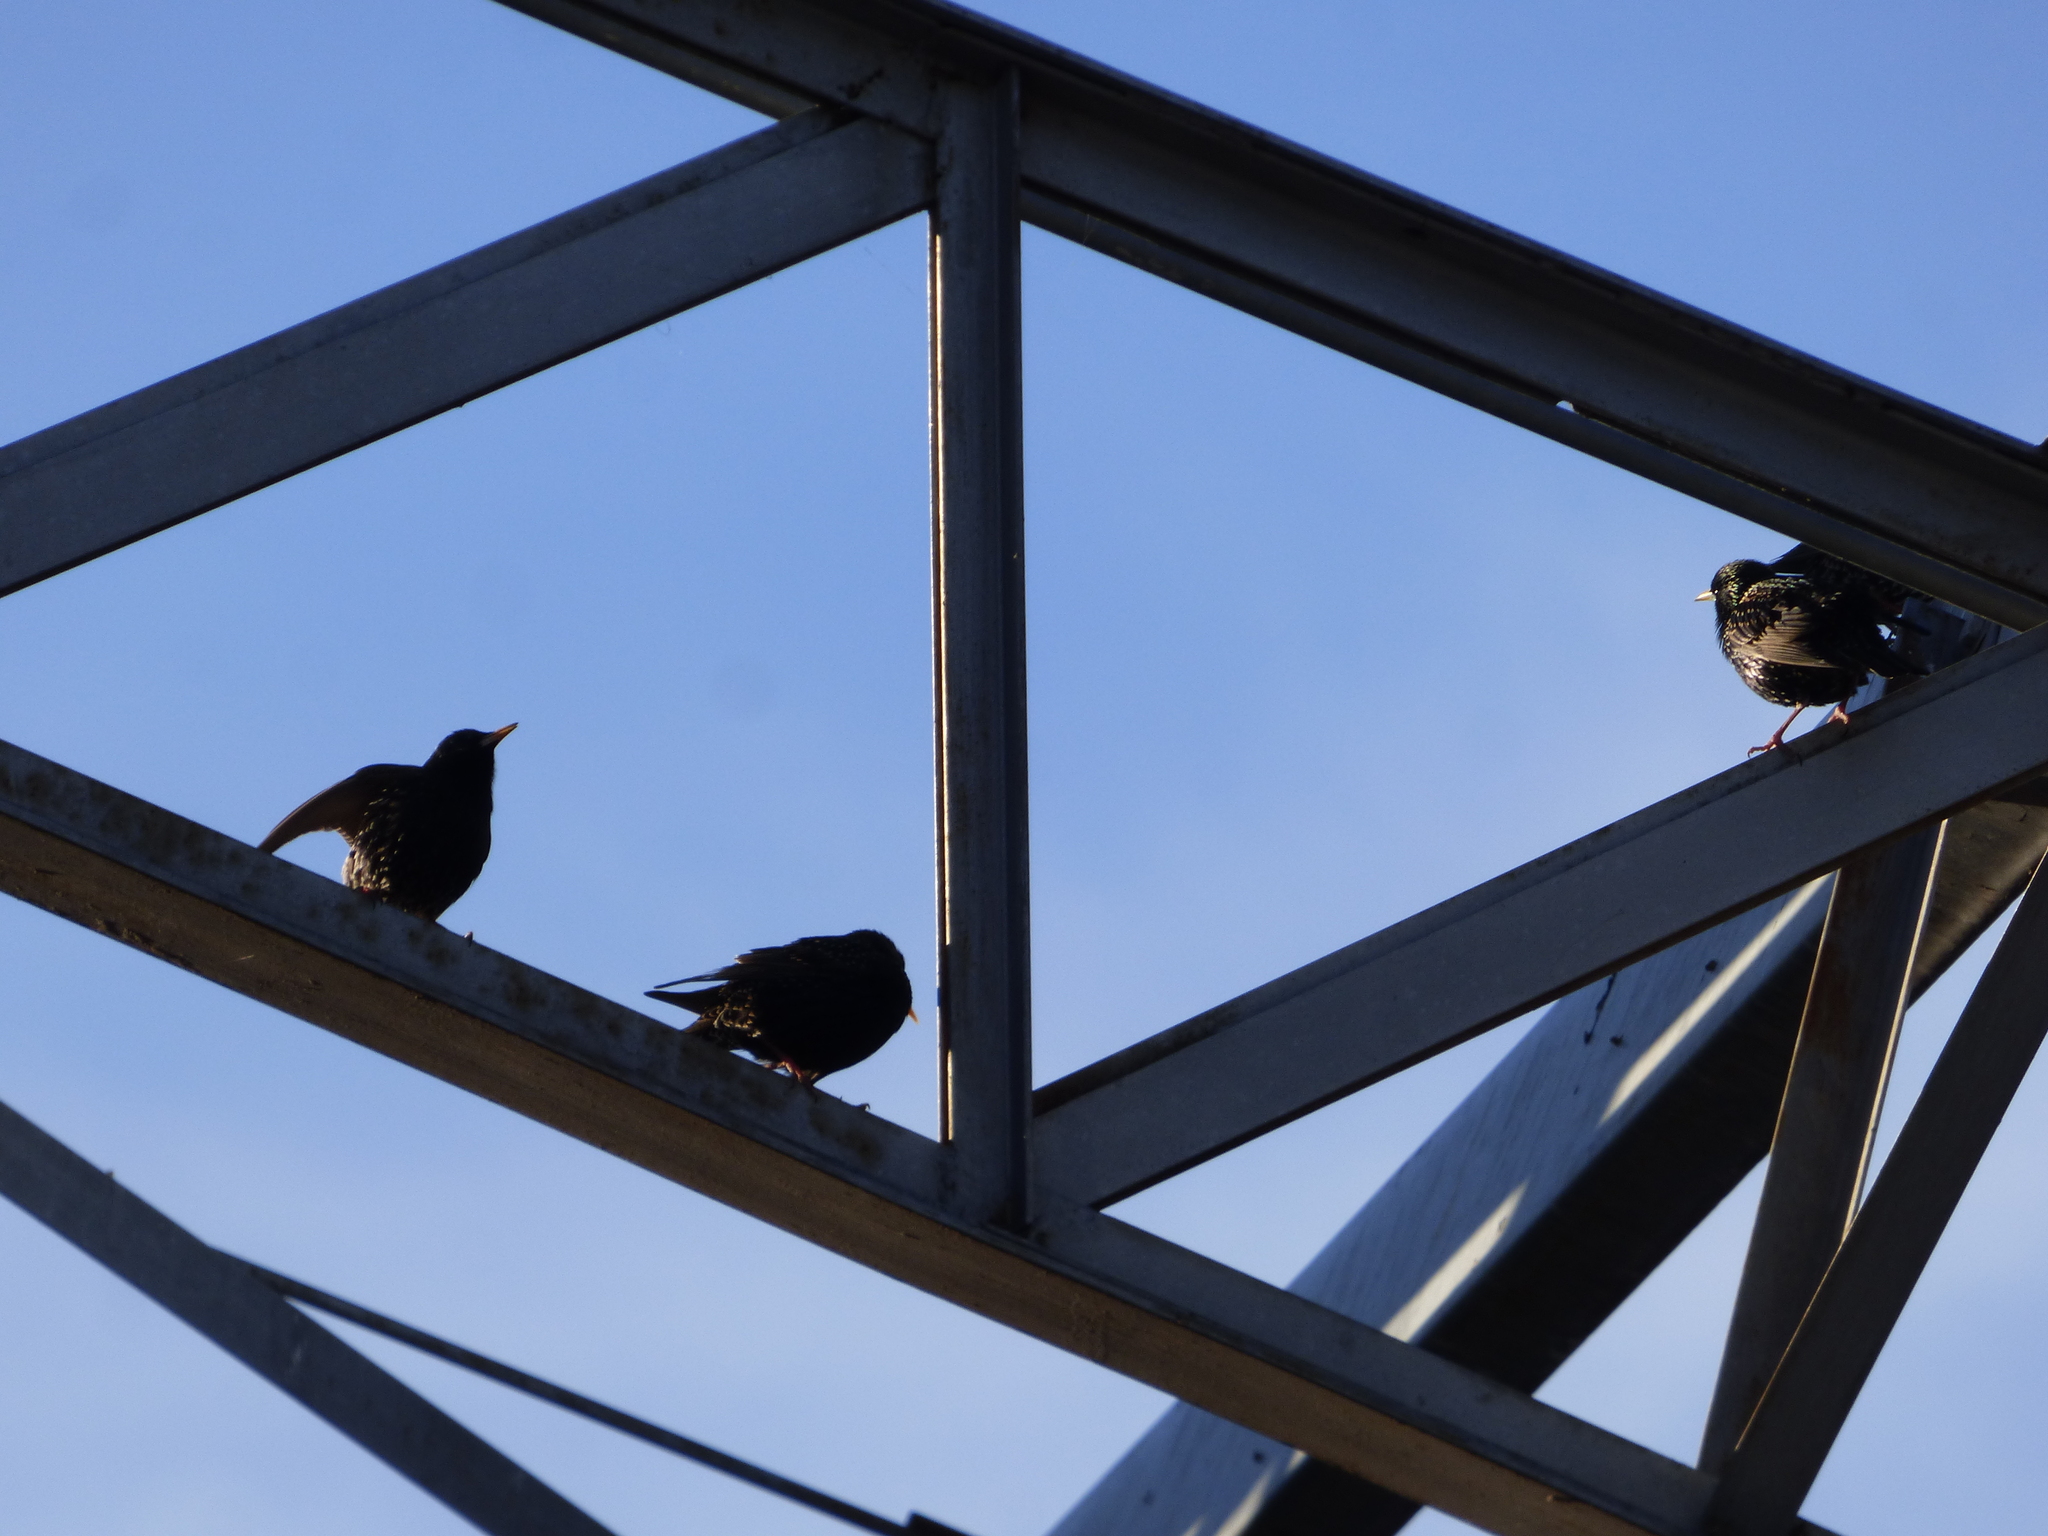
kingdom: Animalia
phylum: Chordata
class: Aves
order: Passeriformes
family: Sturnidae
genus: Sturnus
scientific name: Sturnus vulgaris
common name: Common starling
